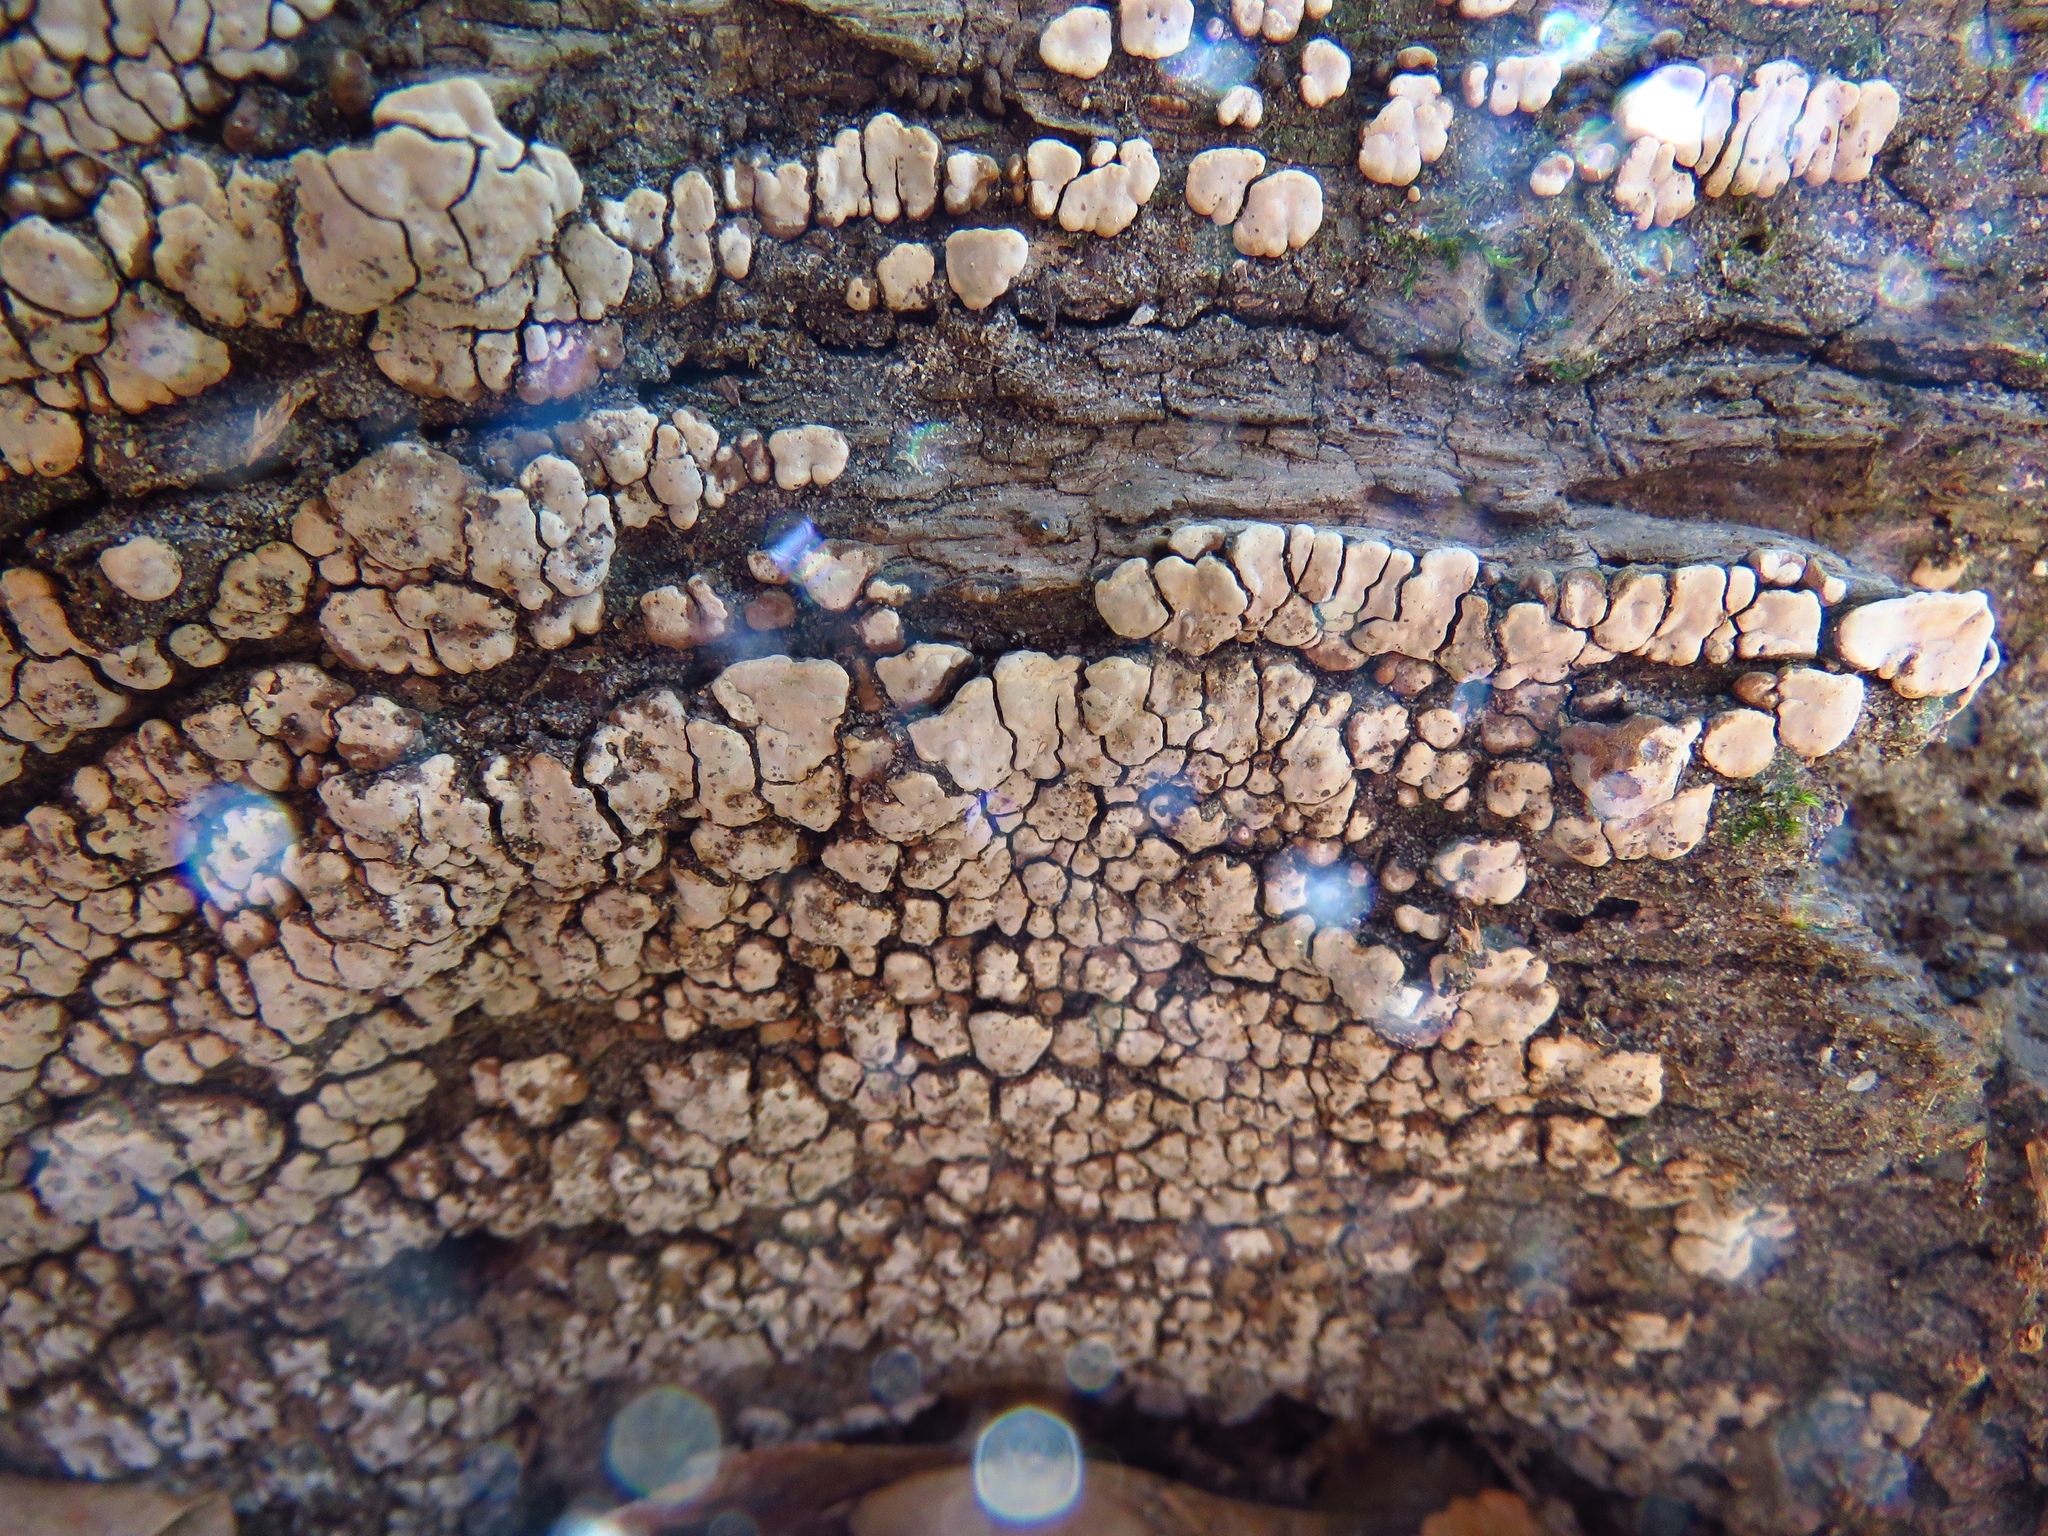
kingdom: Fungi
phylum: Basidiomycota
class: Agaricomycetes
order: Russulales
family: Stereaceae
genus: Xylobolus
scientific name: Xylobolus frustulatus
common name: Ceramic parchment
